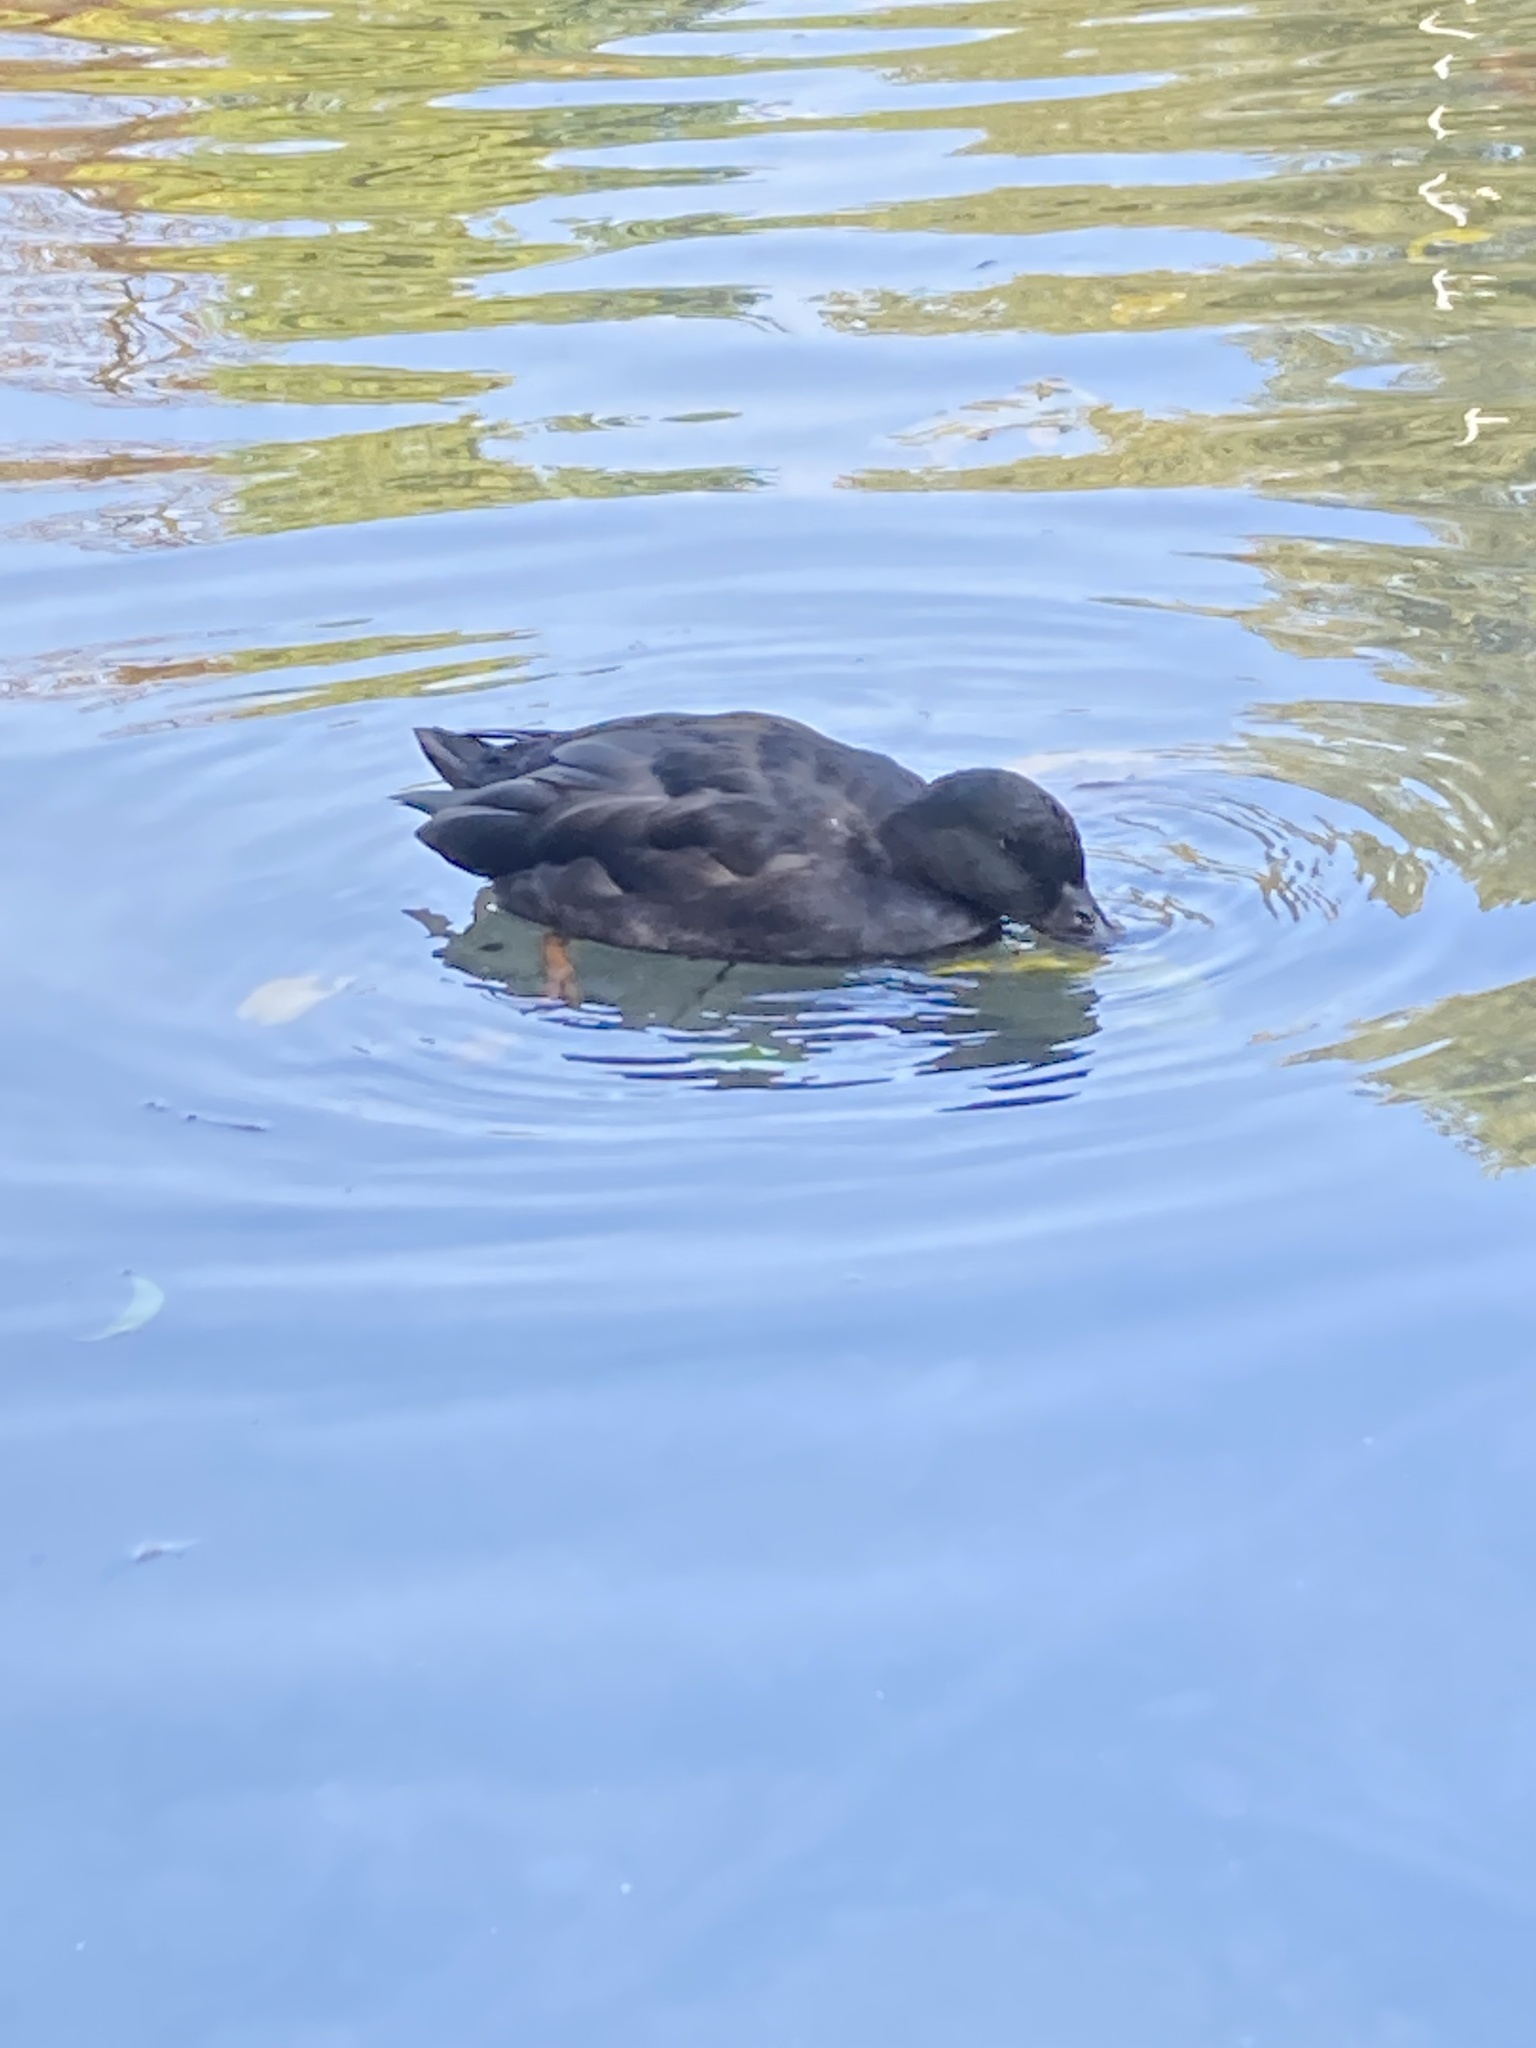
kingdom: Animalia
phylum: Chordata
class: Aves
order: Anseriformes
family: Anatidae
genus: Anas
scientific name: Anas platyrhynchos
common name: Mallard
